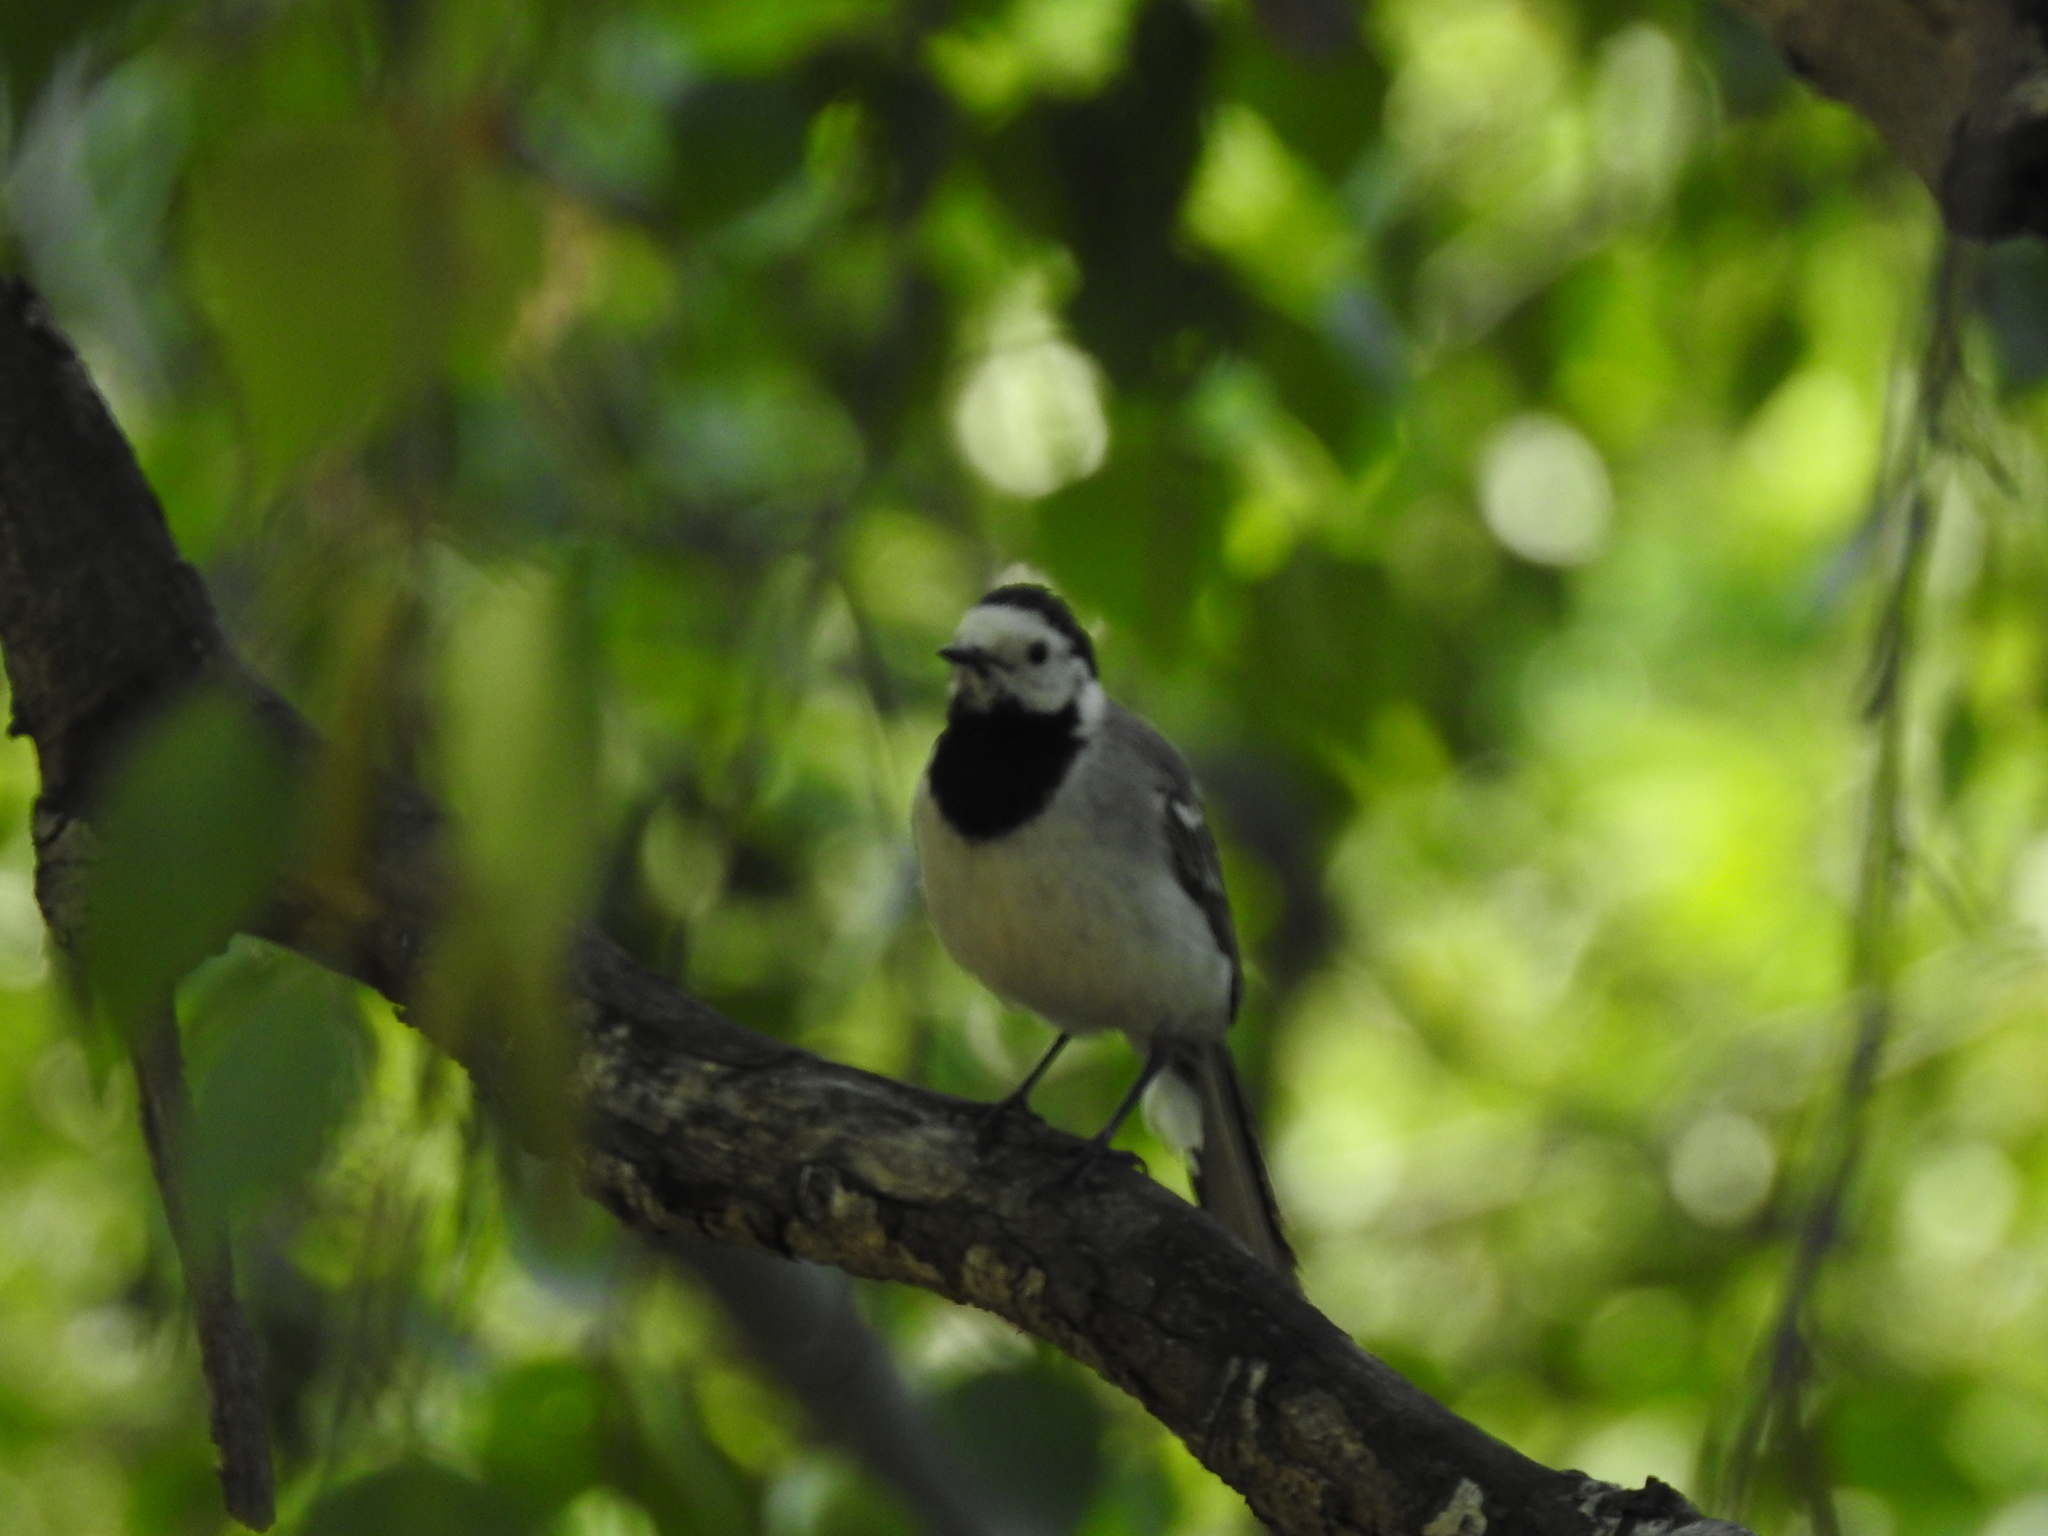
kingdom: Animalia
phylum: Chordata
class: Aves
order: Passeriformes
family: Motacillidae
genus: Motacilla
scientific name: Motacilla alba
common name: White wagtail
